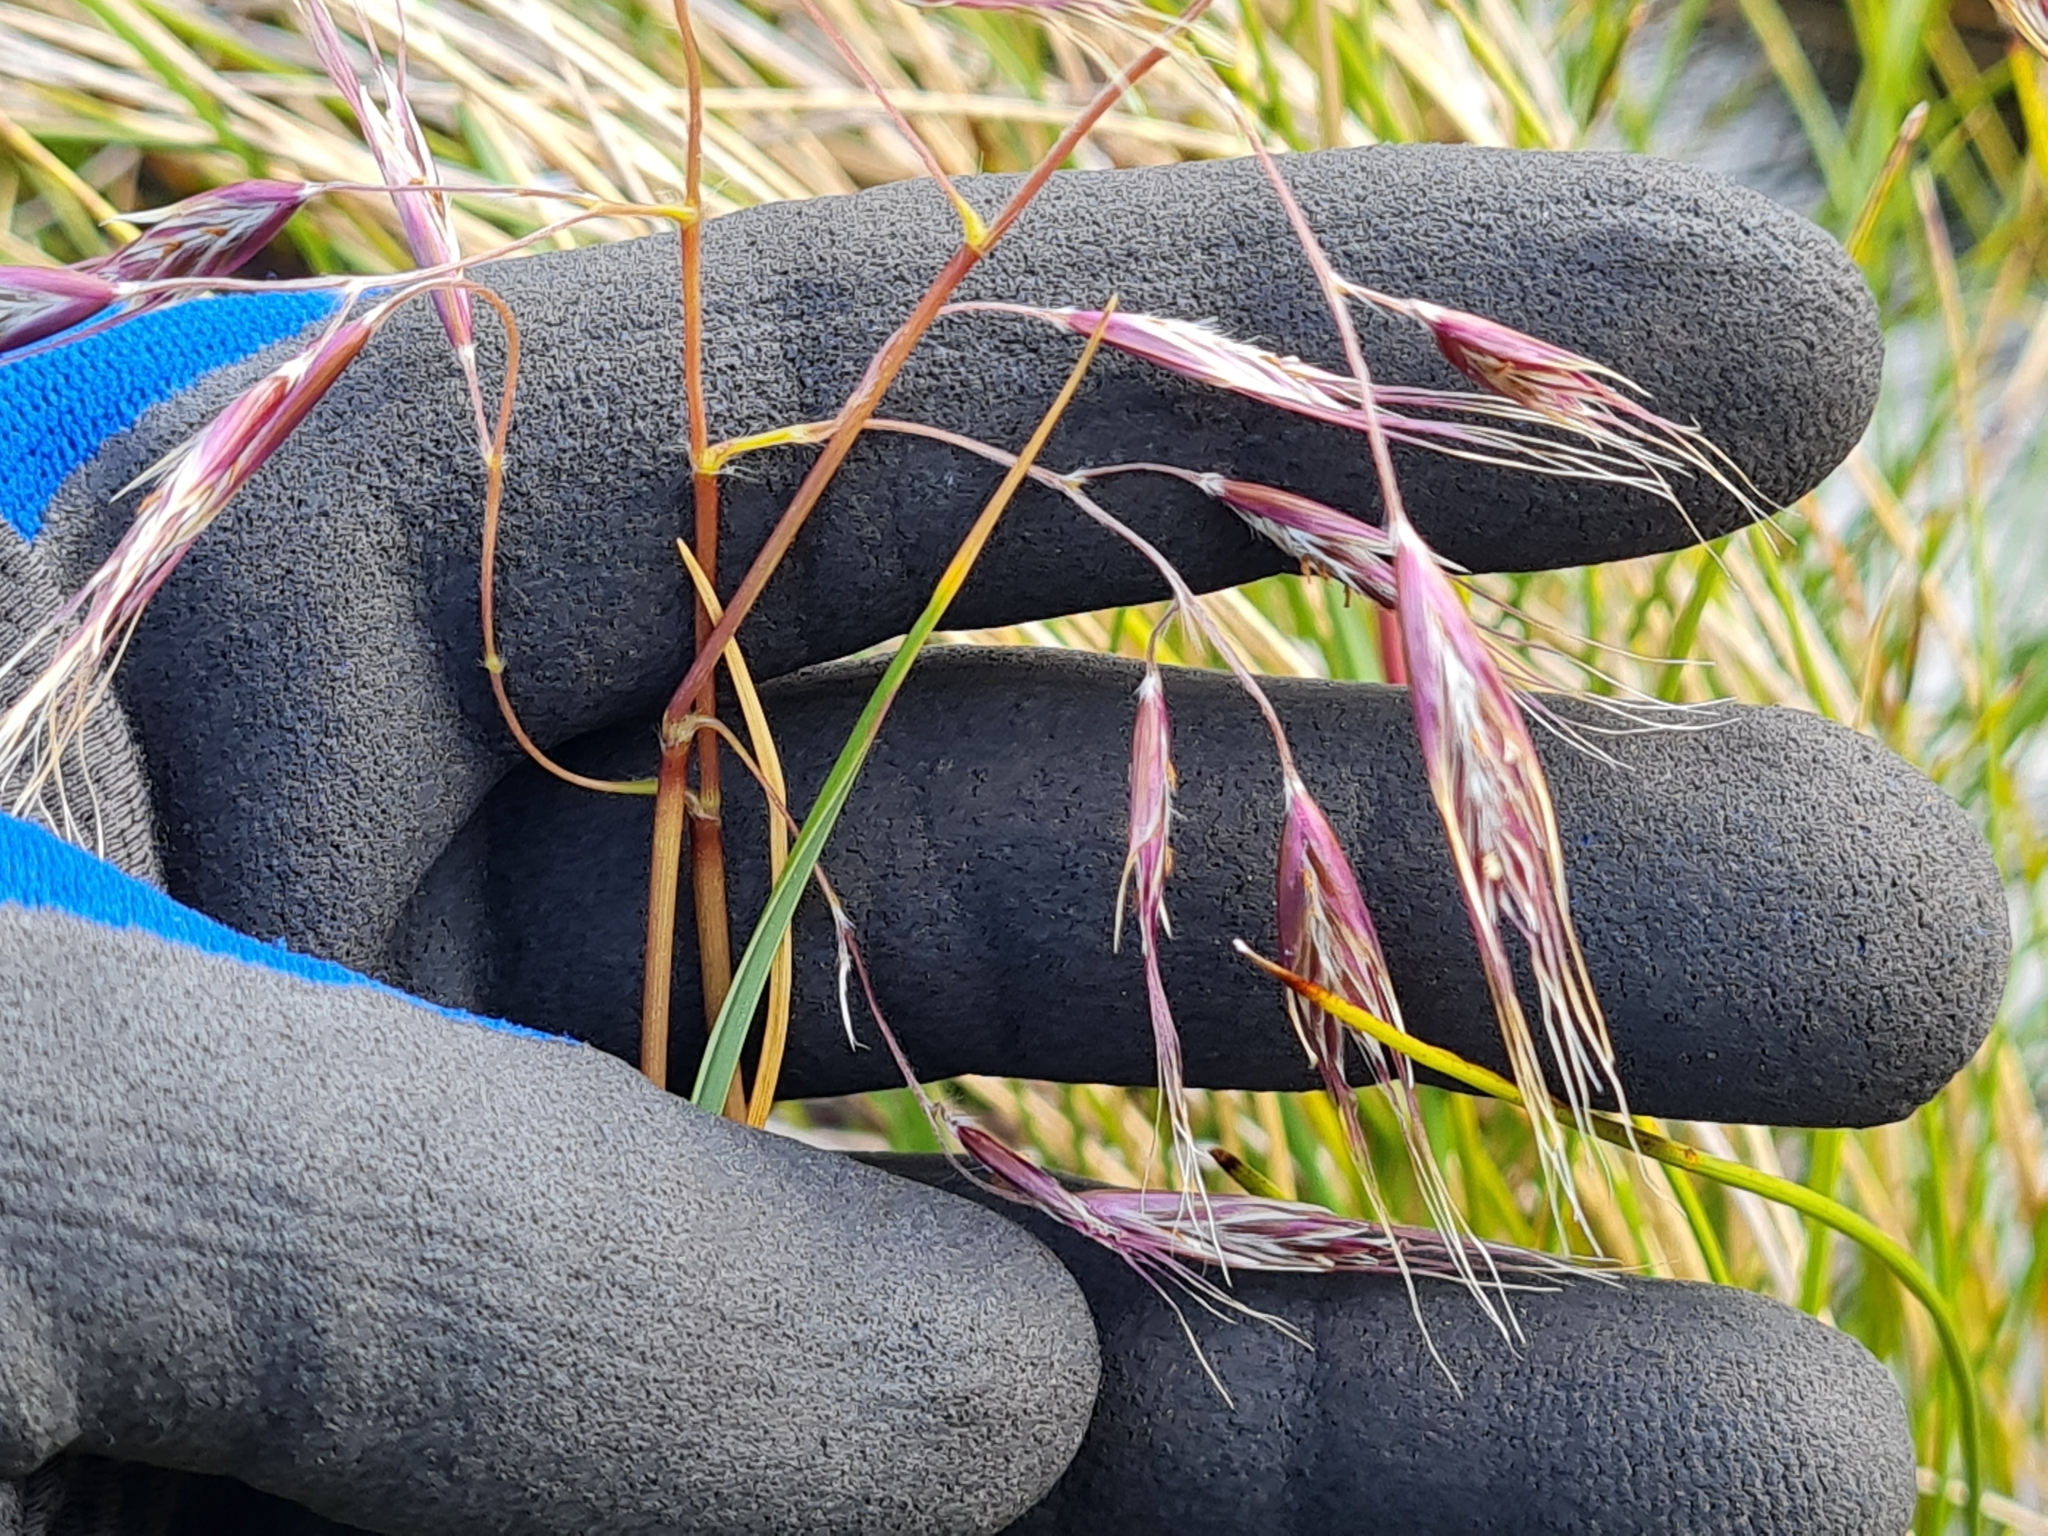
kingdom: Plantae
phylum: Tracheophyta
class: Liliopsida
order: Poales
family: Poaceae
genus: Chionochloa
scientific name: Chionochloa ovata
